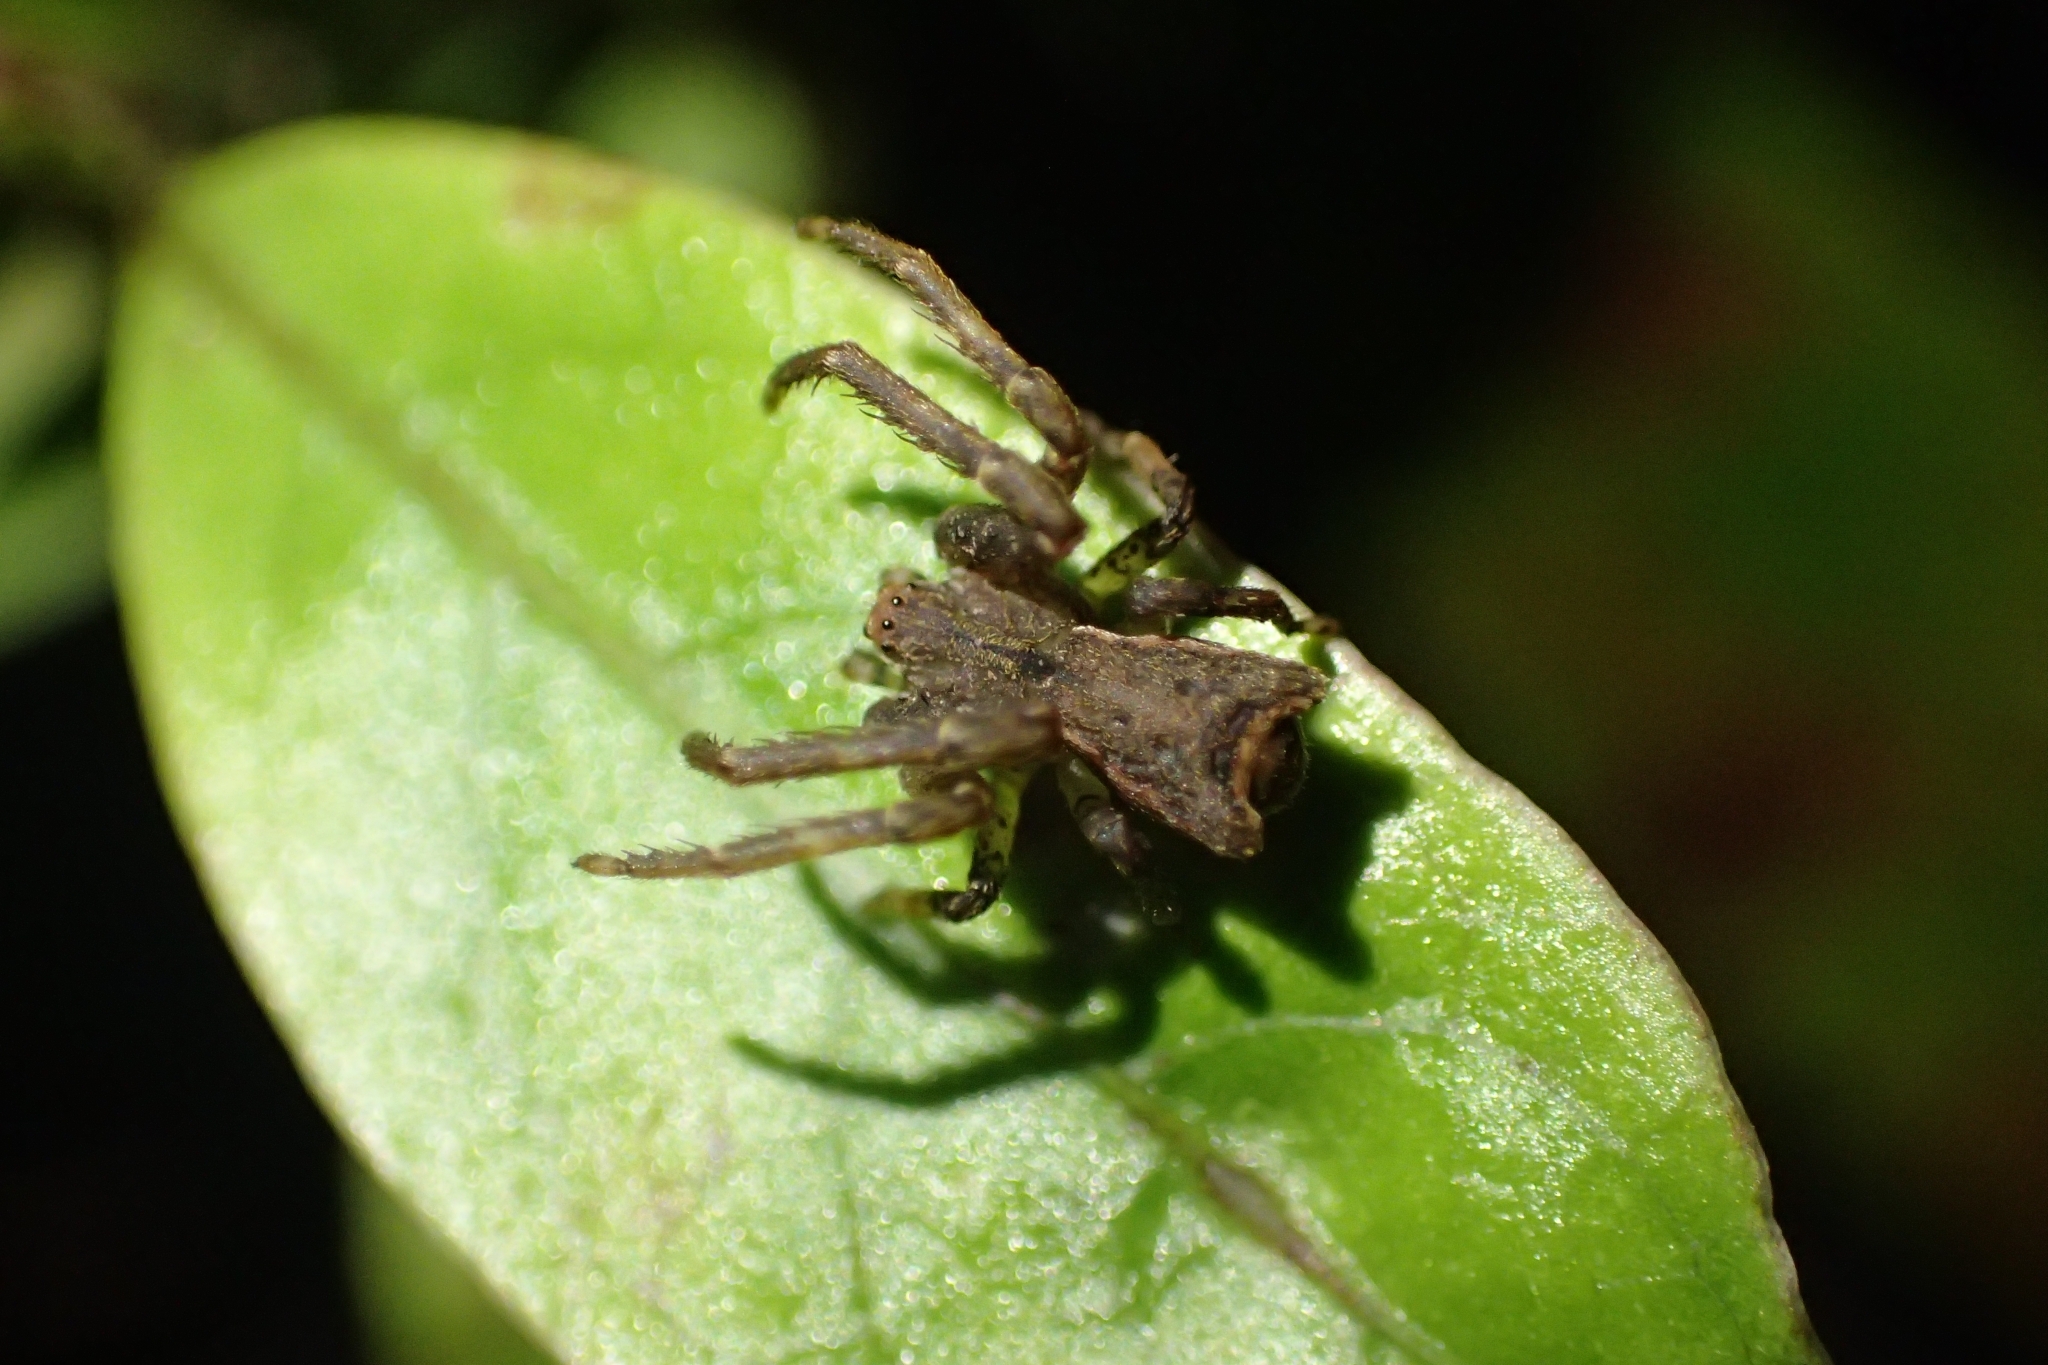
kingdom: Animalia
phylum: Arthropoda
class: Arachnida
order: Araneae
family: Thomisidae
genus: Sidymella
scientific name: Sidymella angularis
